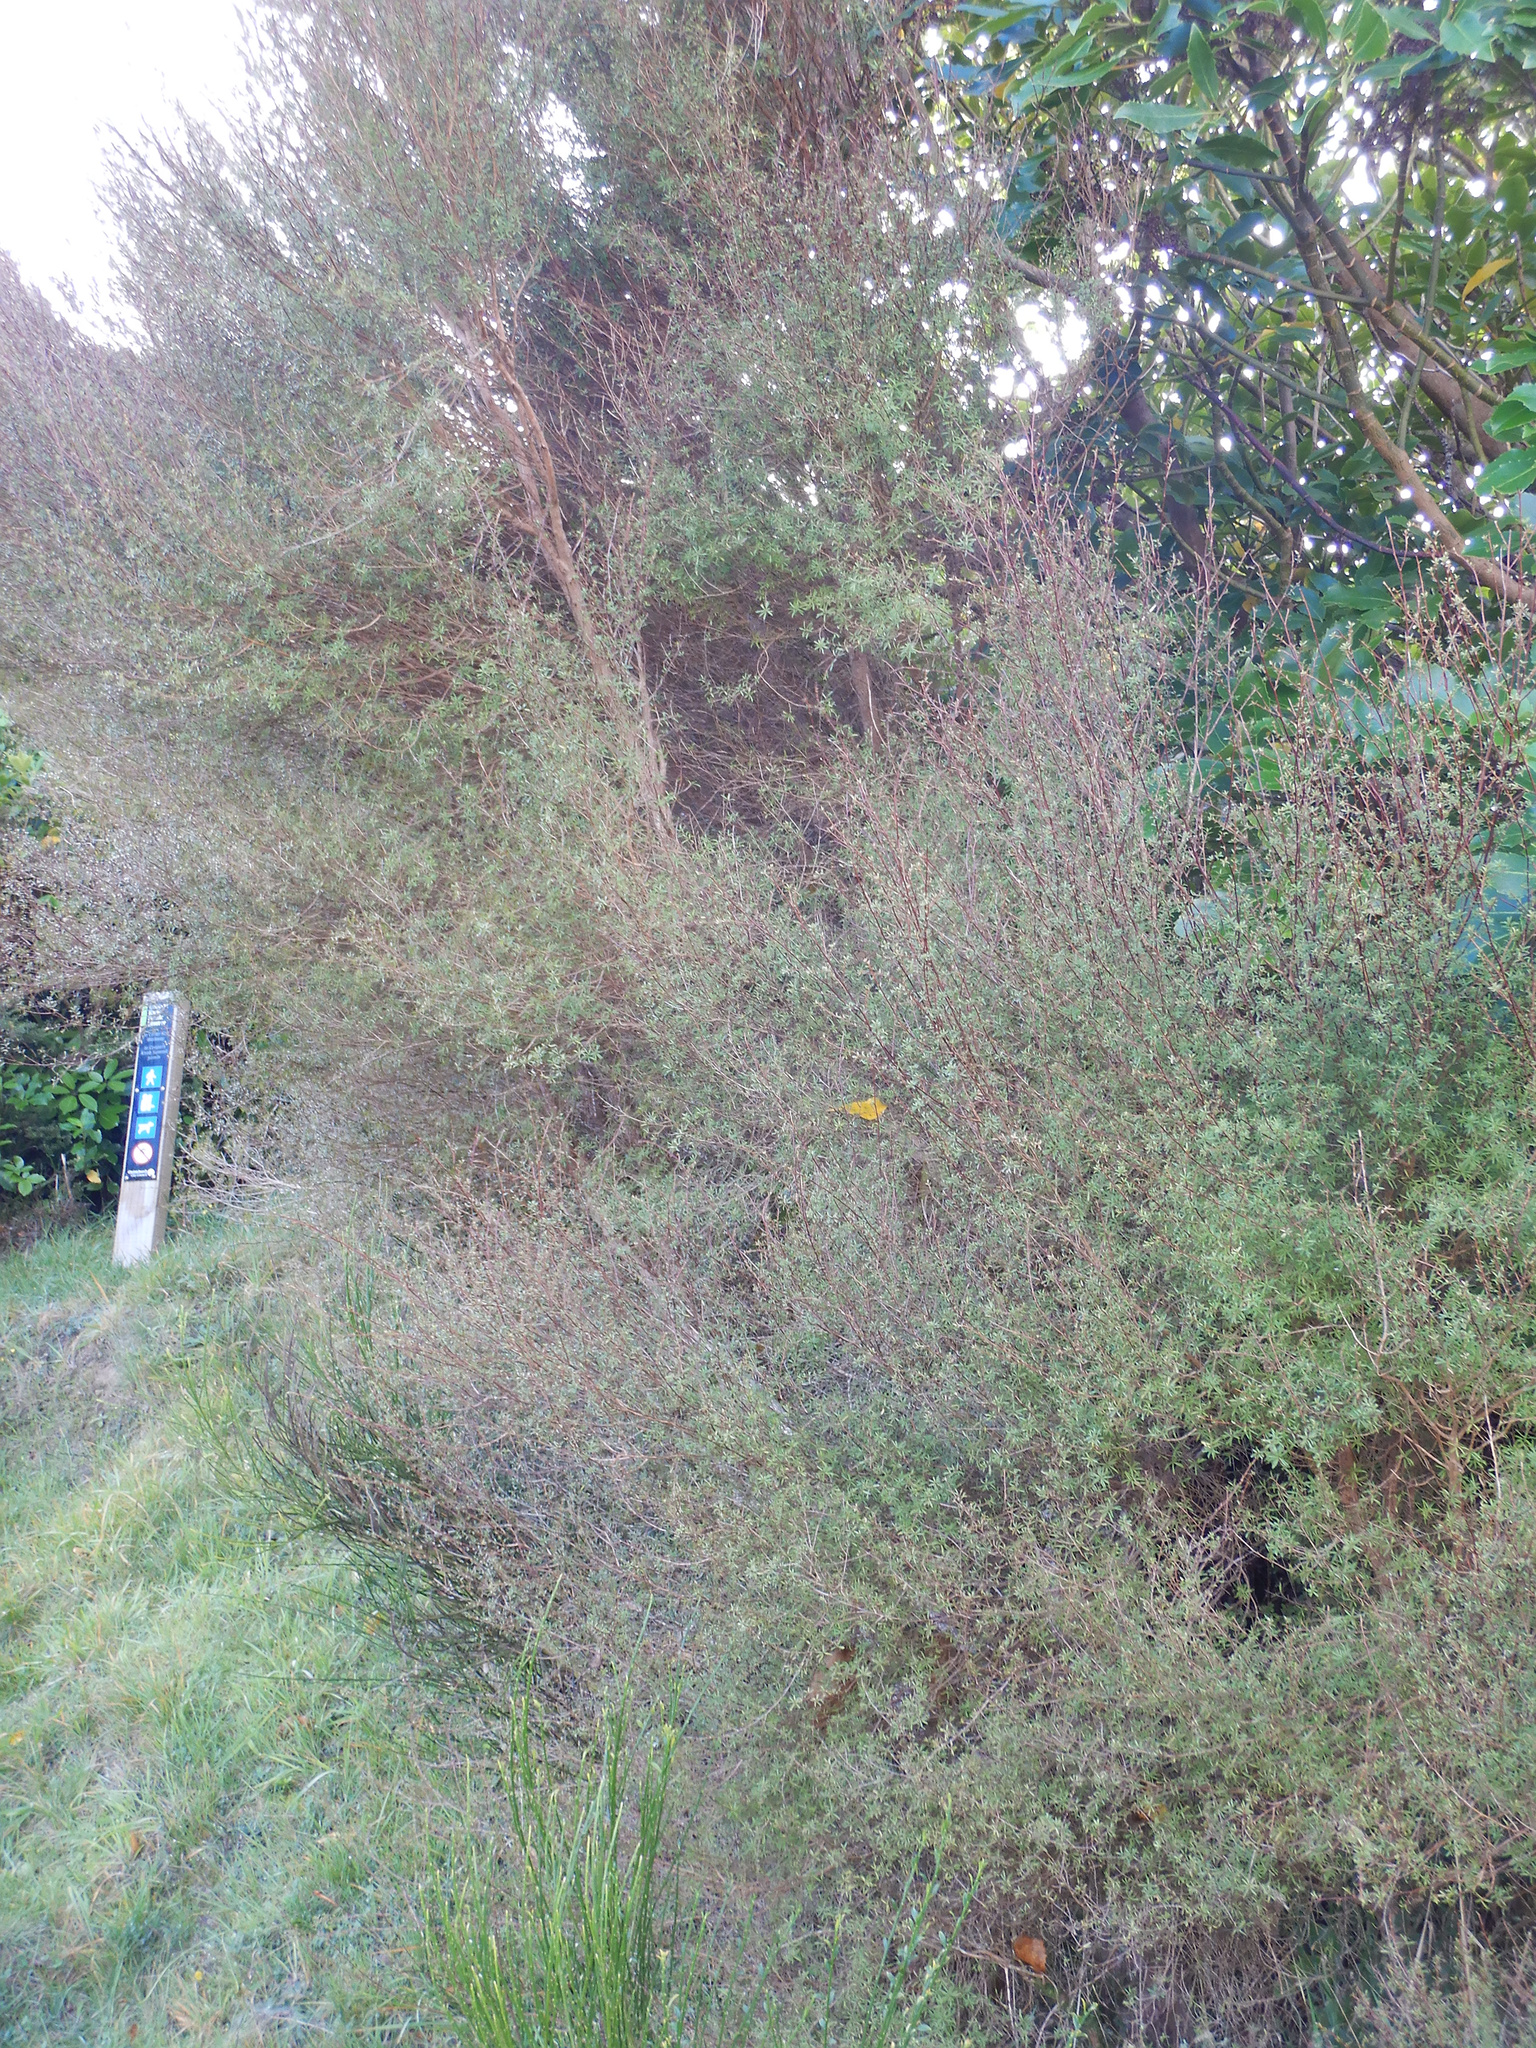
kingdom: Plantae
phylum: Tracheophyta
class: Magnoliopsida
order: Myrtales
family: Myrtaceae
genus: Kunzea
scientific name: Kunzea robusta
